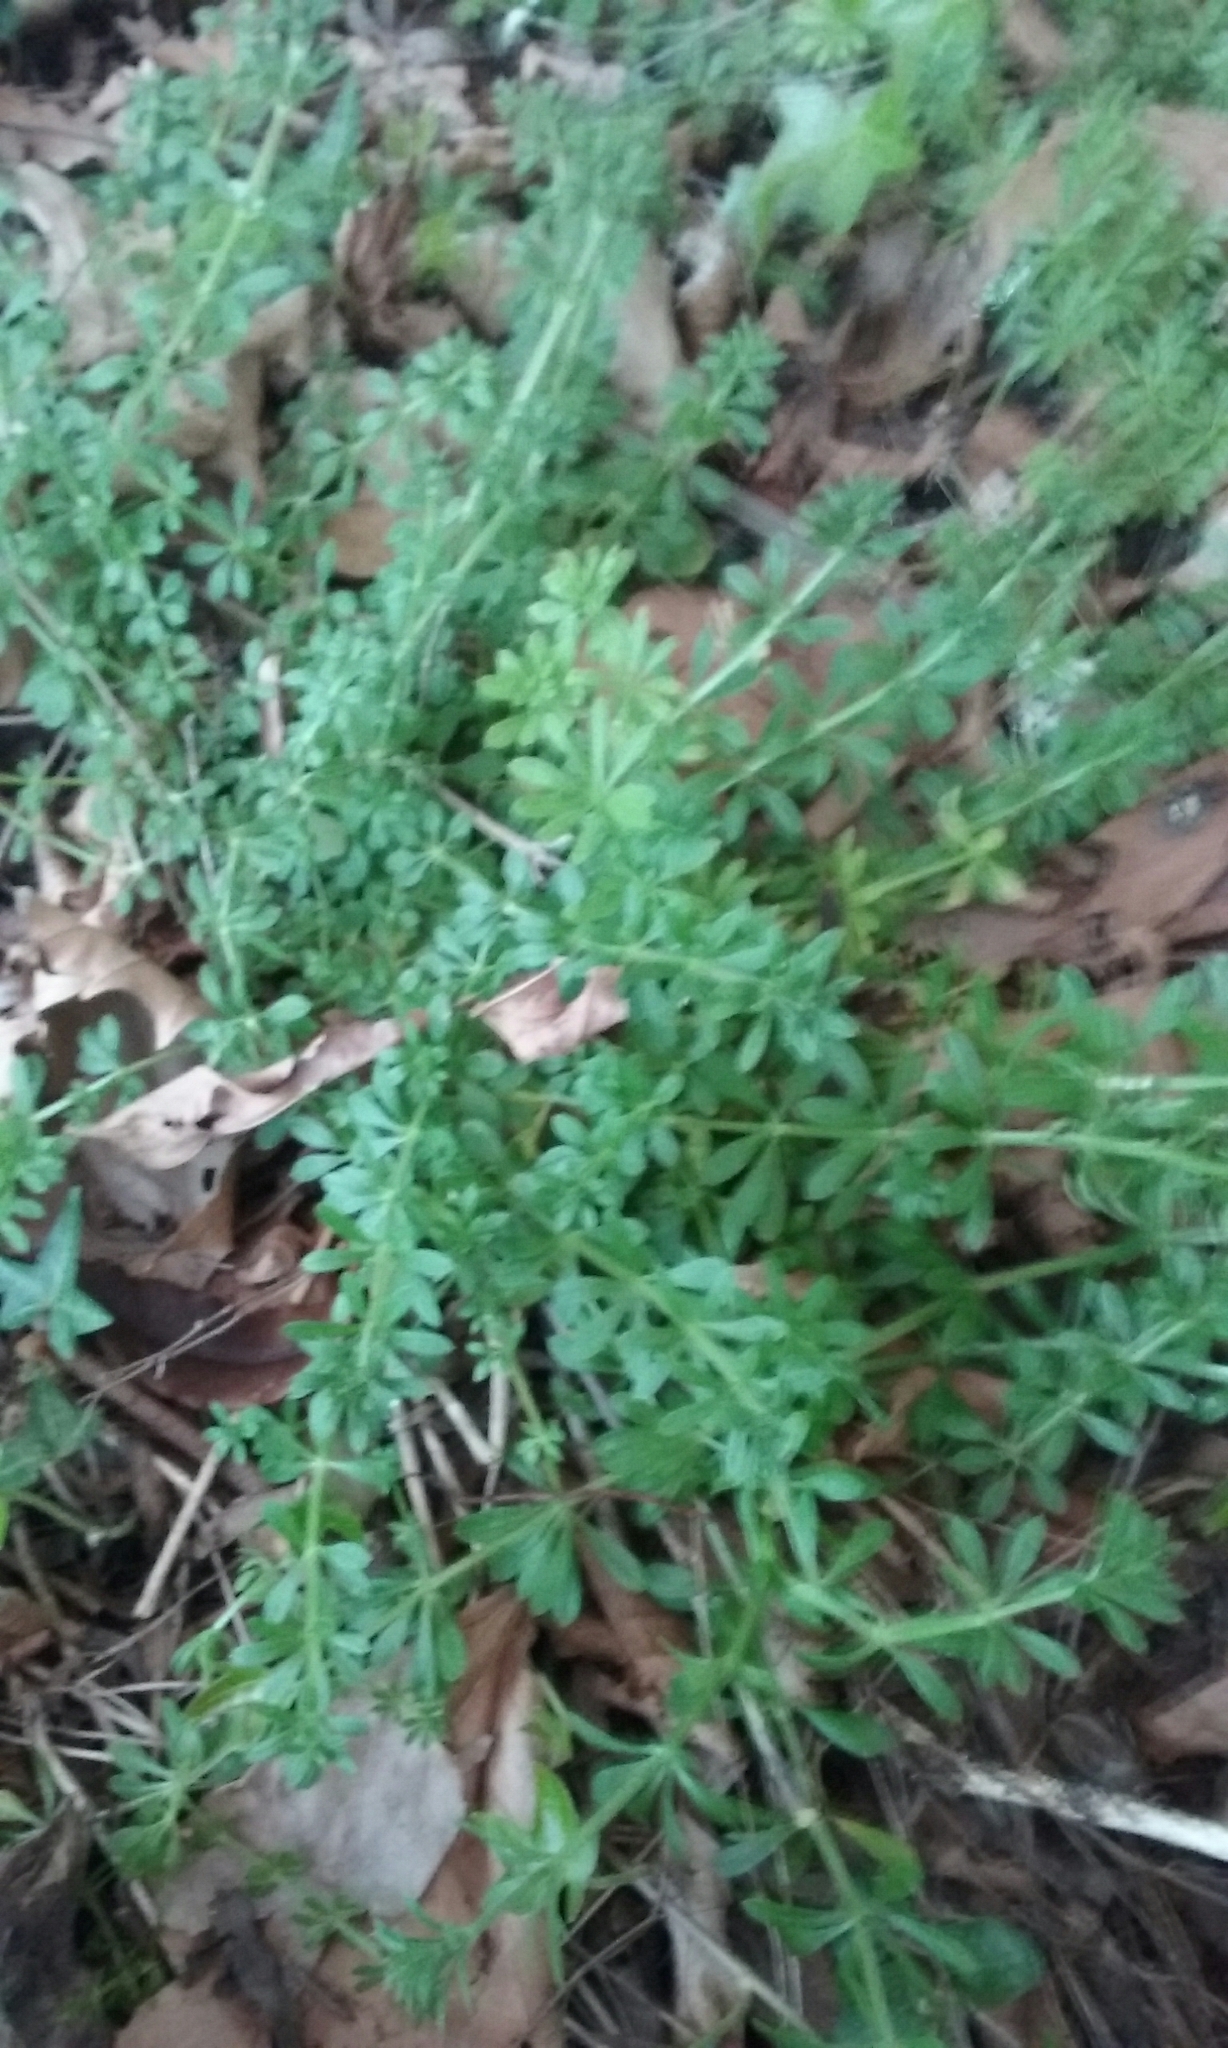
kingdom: Plantae
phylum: Tracheophyta
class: Magnoliopsida
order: Gentianales
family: Rubiaceae
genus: Galium
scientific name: Galium aparine
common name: Cleavers
